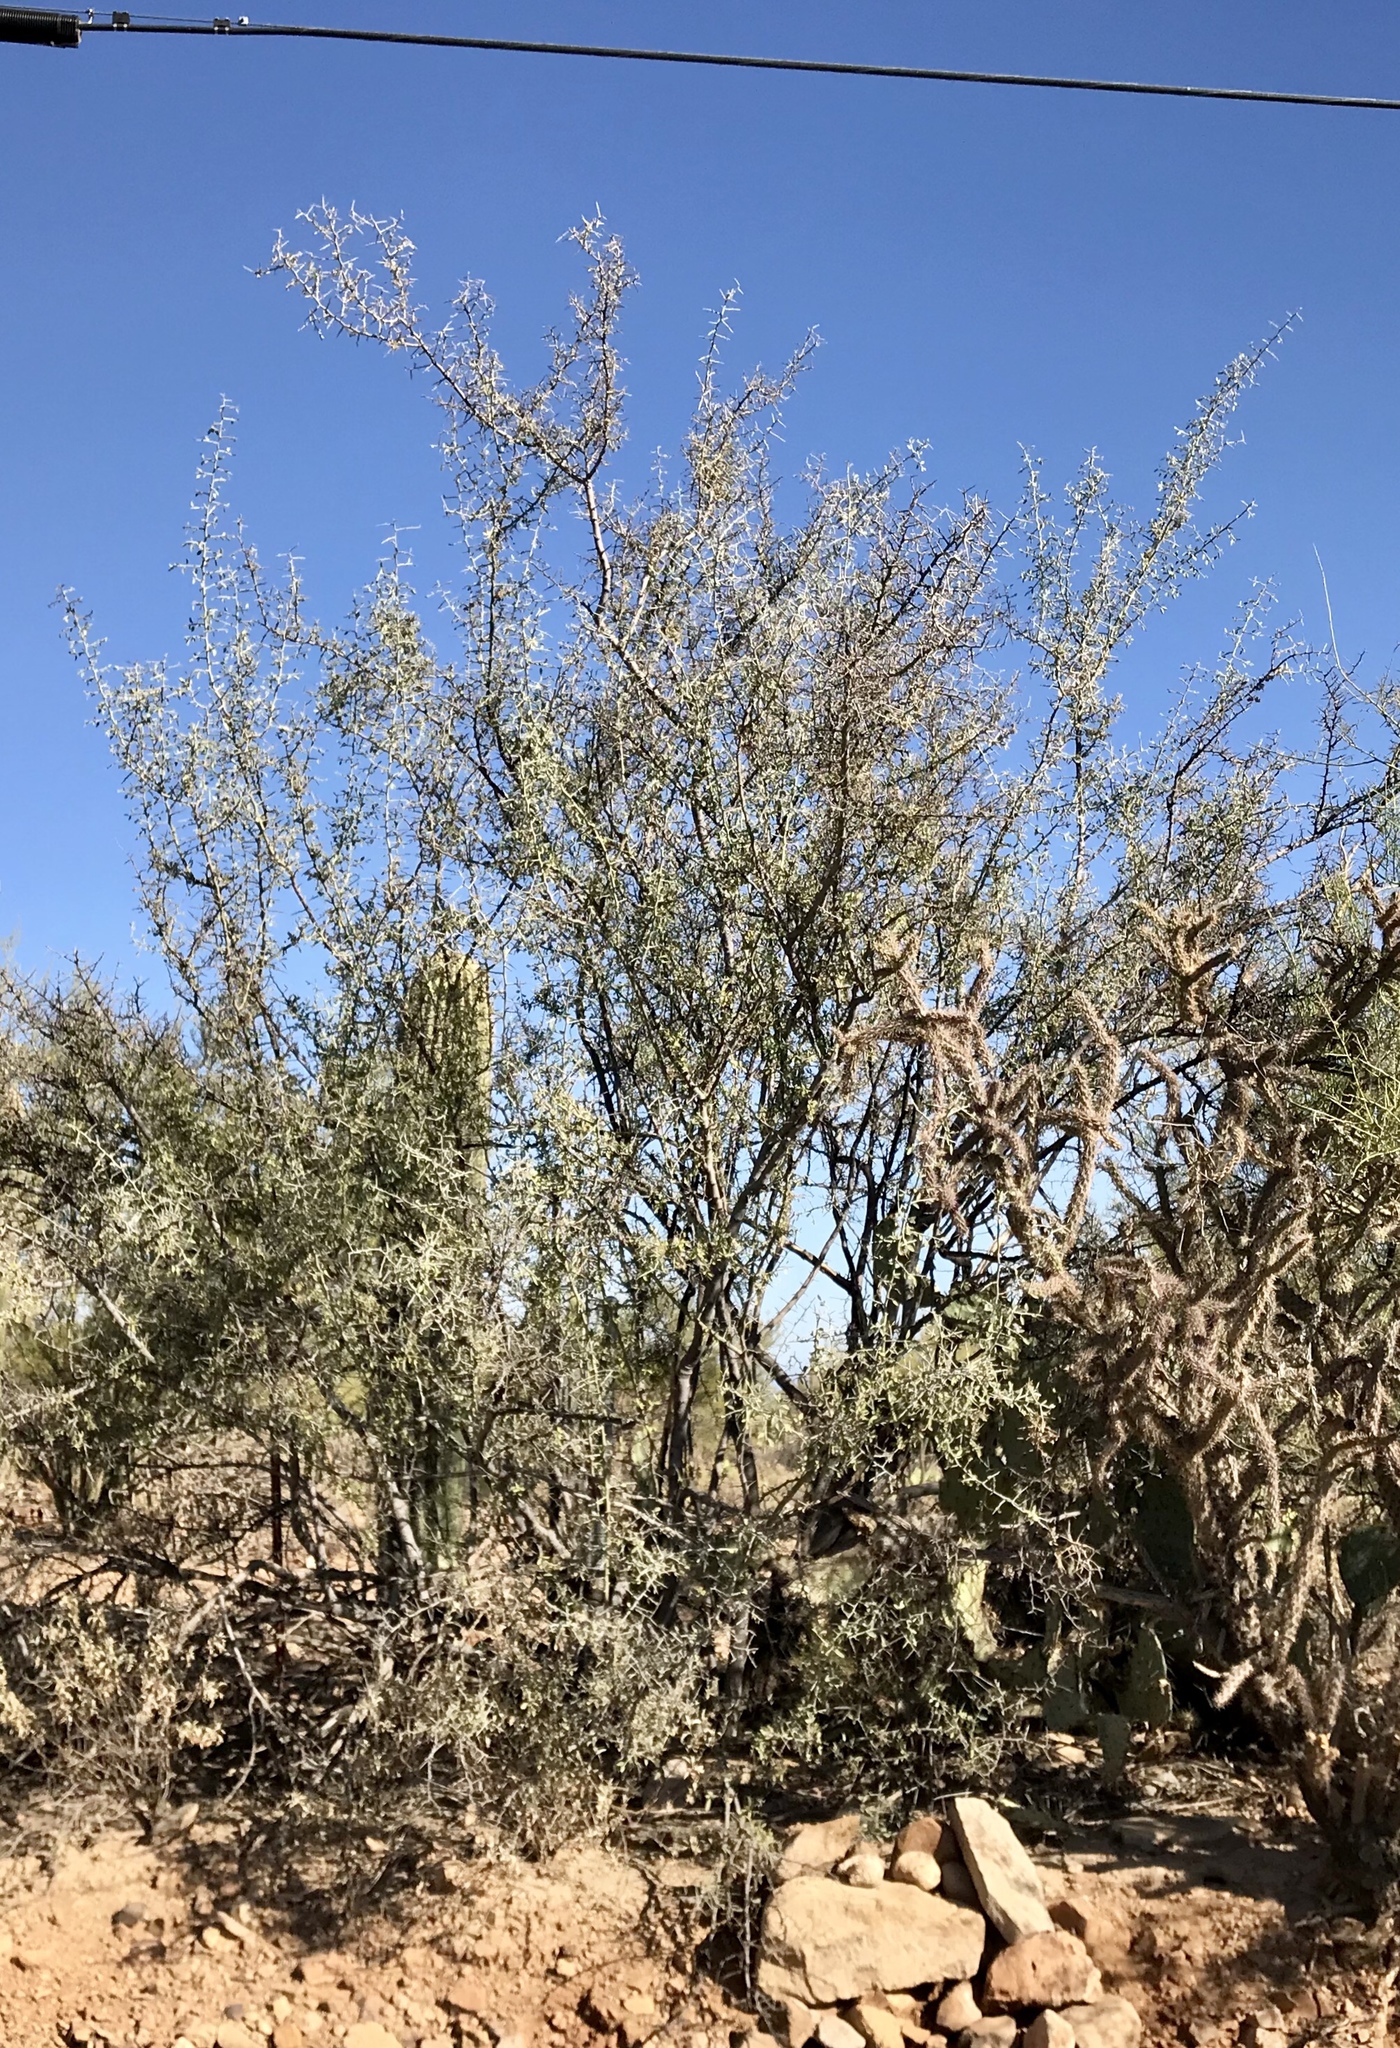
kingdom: Plantae
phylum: Tracheophyta
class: Magnoliopsida
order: Rosales
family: Rhamnaceae
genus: Sarcomphalus
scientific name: Sarcomphalus obtusifolius
